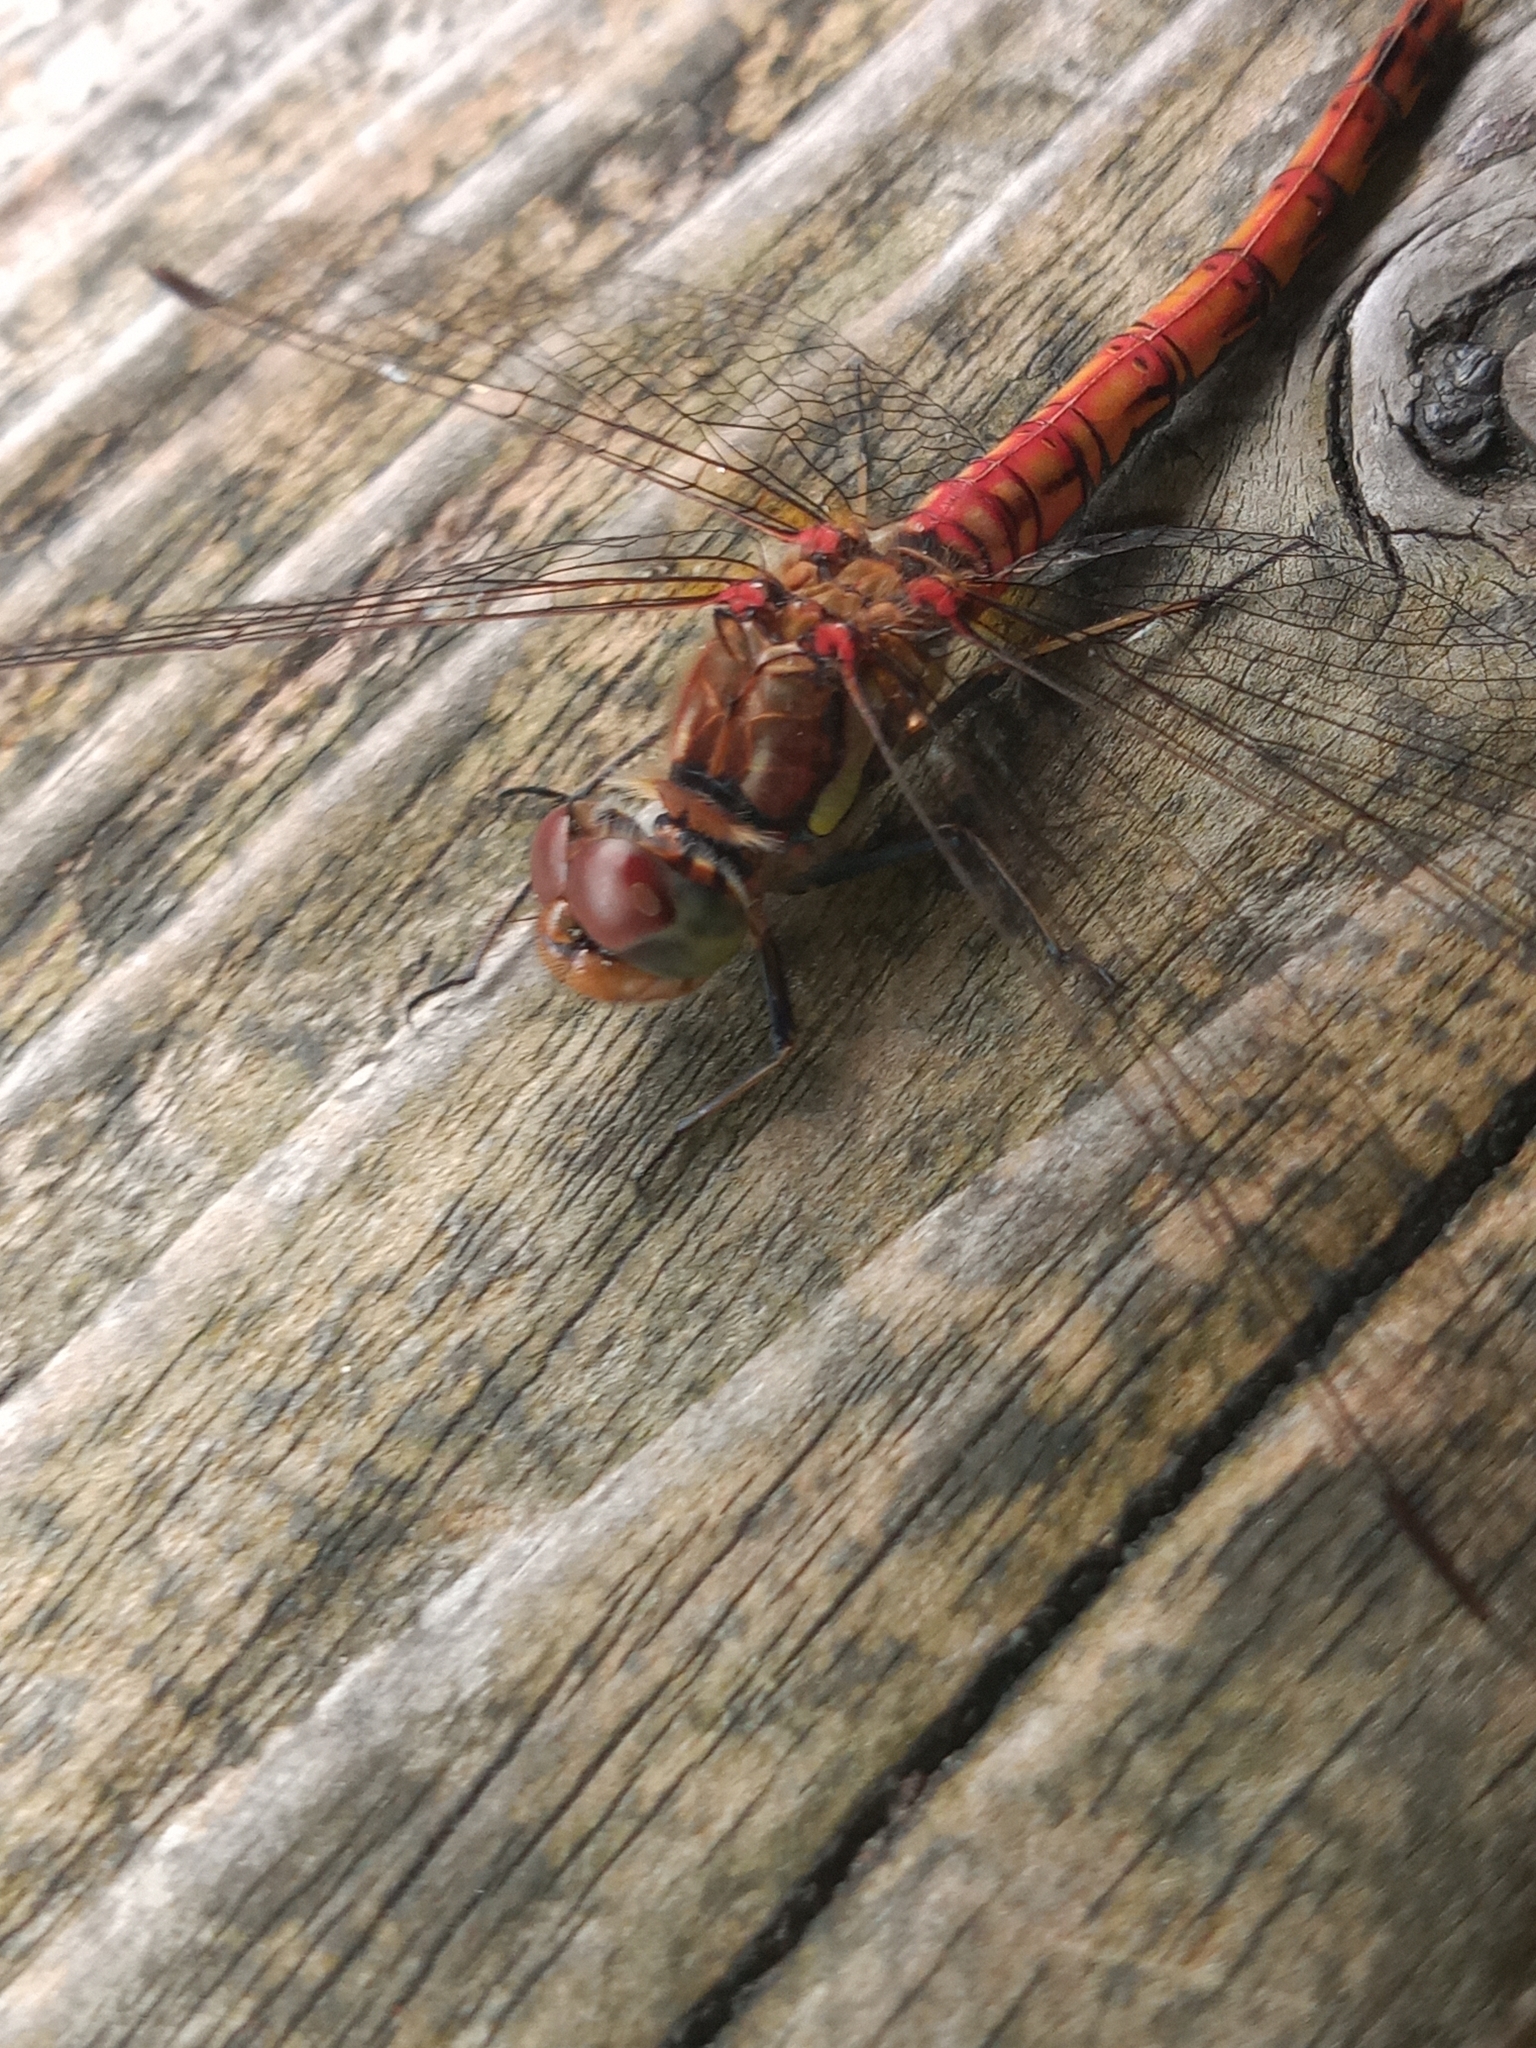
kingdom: Animalia
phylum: Arthropoda
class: Insecta
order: Odonata
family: Libellulidae
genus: Sympetrum
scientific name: Sympetrum striolatum
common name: Common darter
